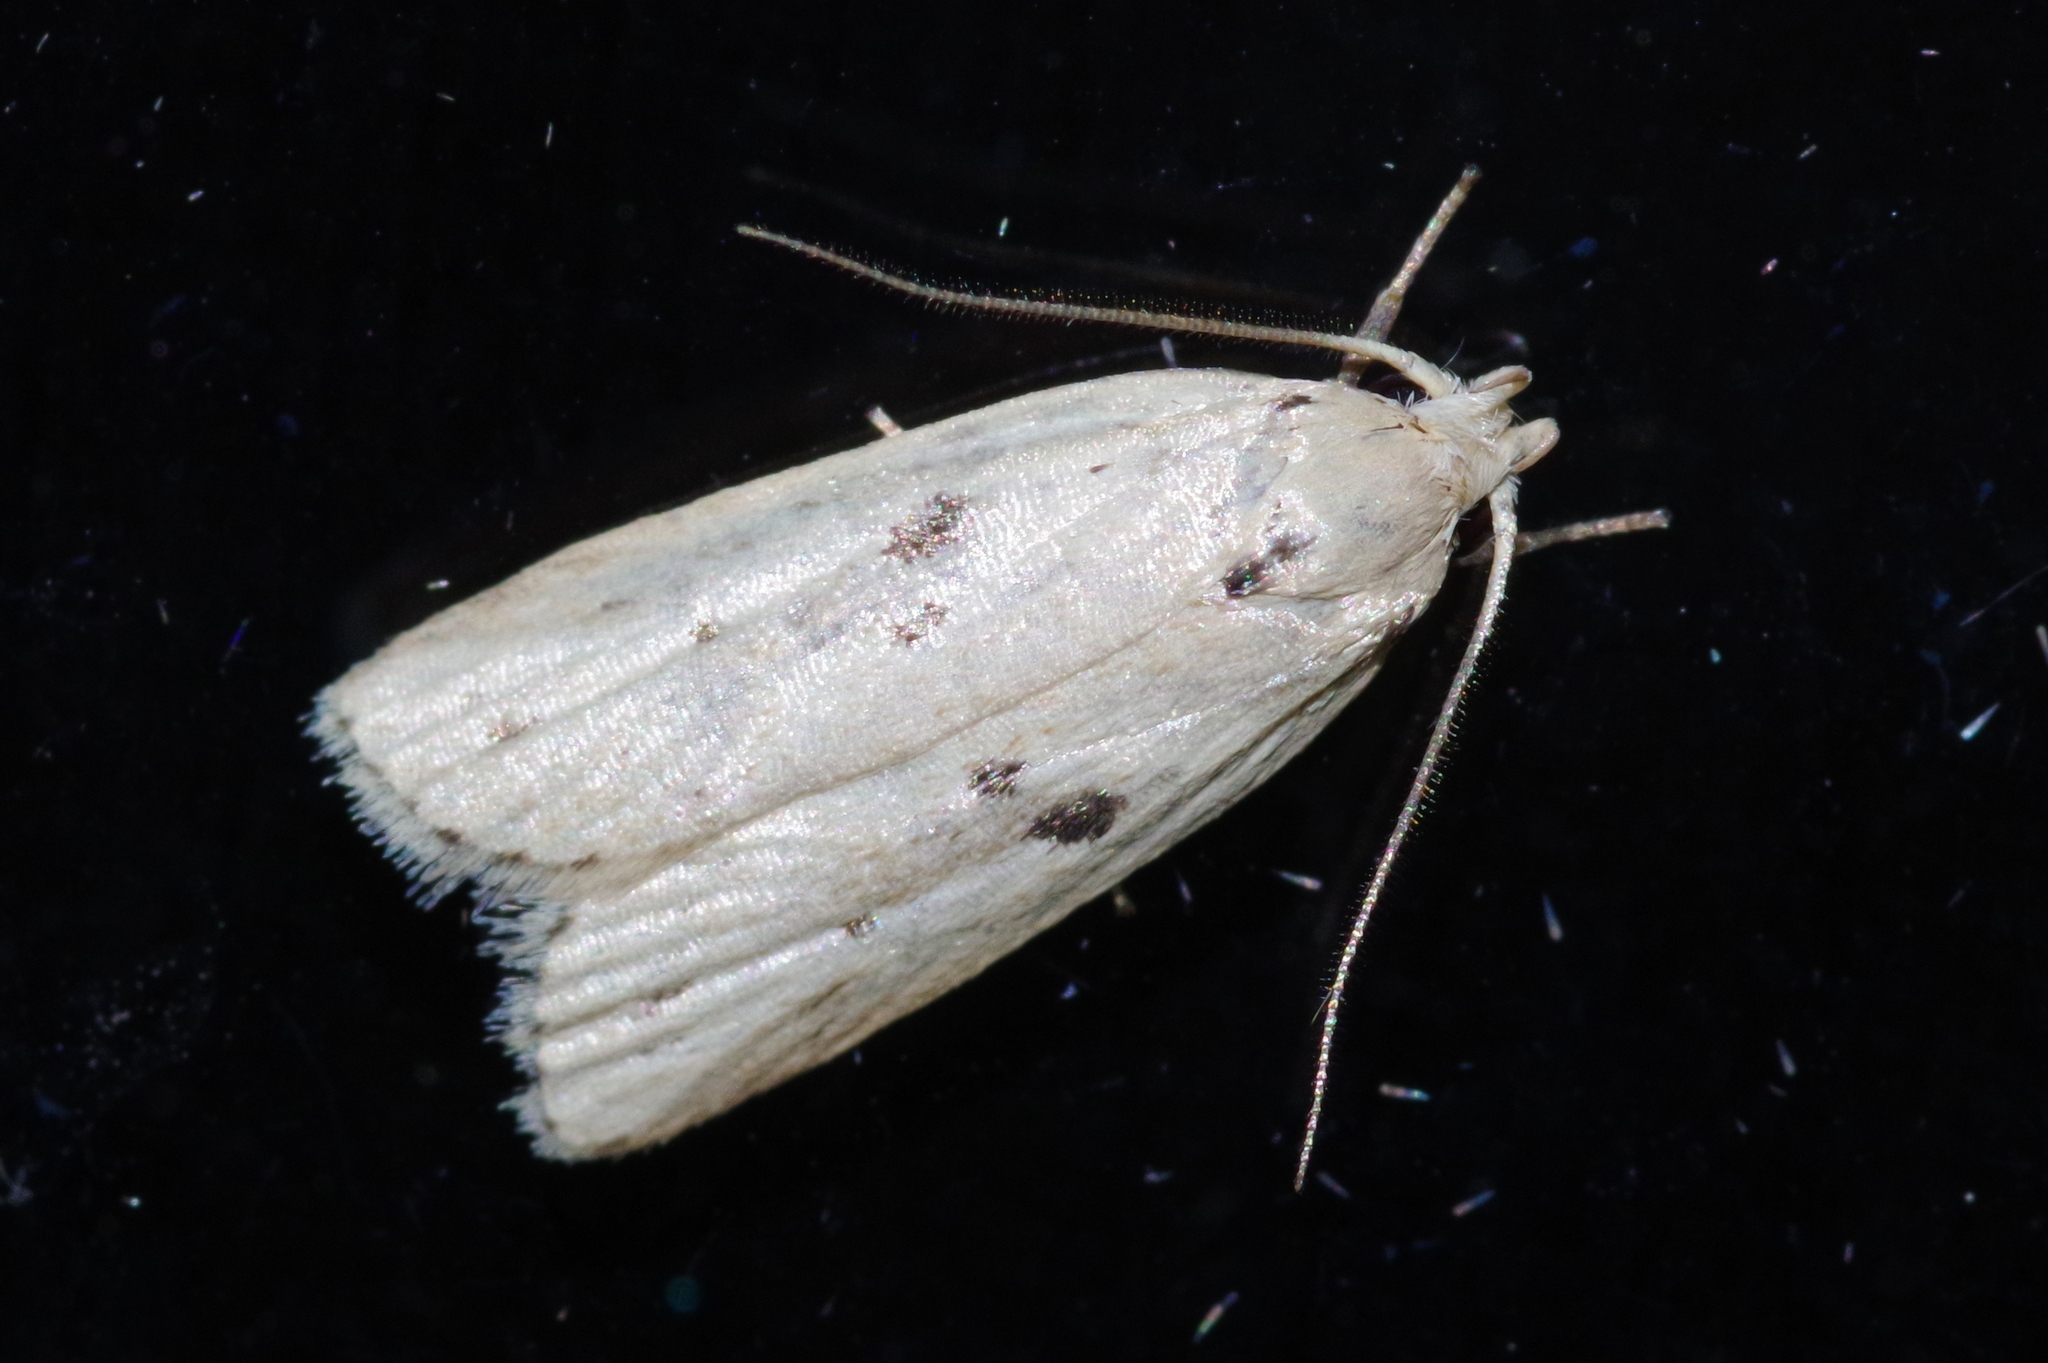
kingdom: Animalia
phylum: Arthropoda
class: Insecta
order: Lepidoptera
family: Peleopodidae
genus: Scythropiodes
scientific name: Scythropiodes issikii
